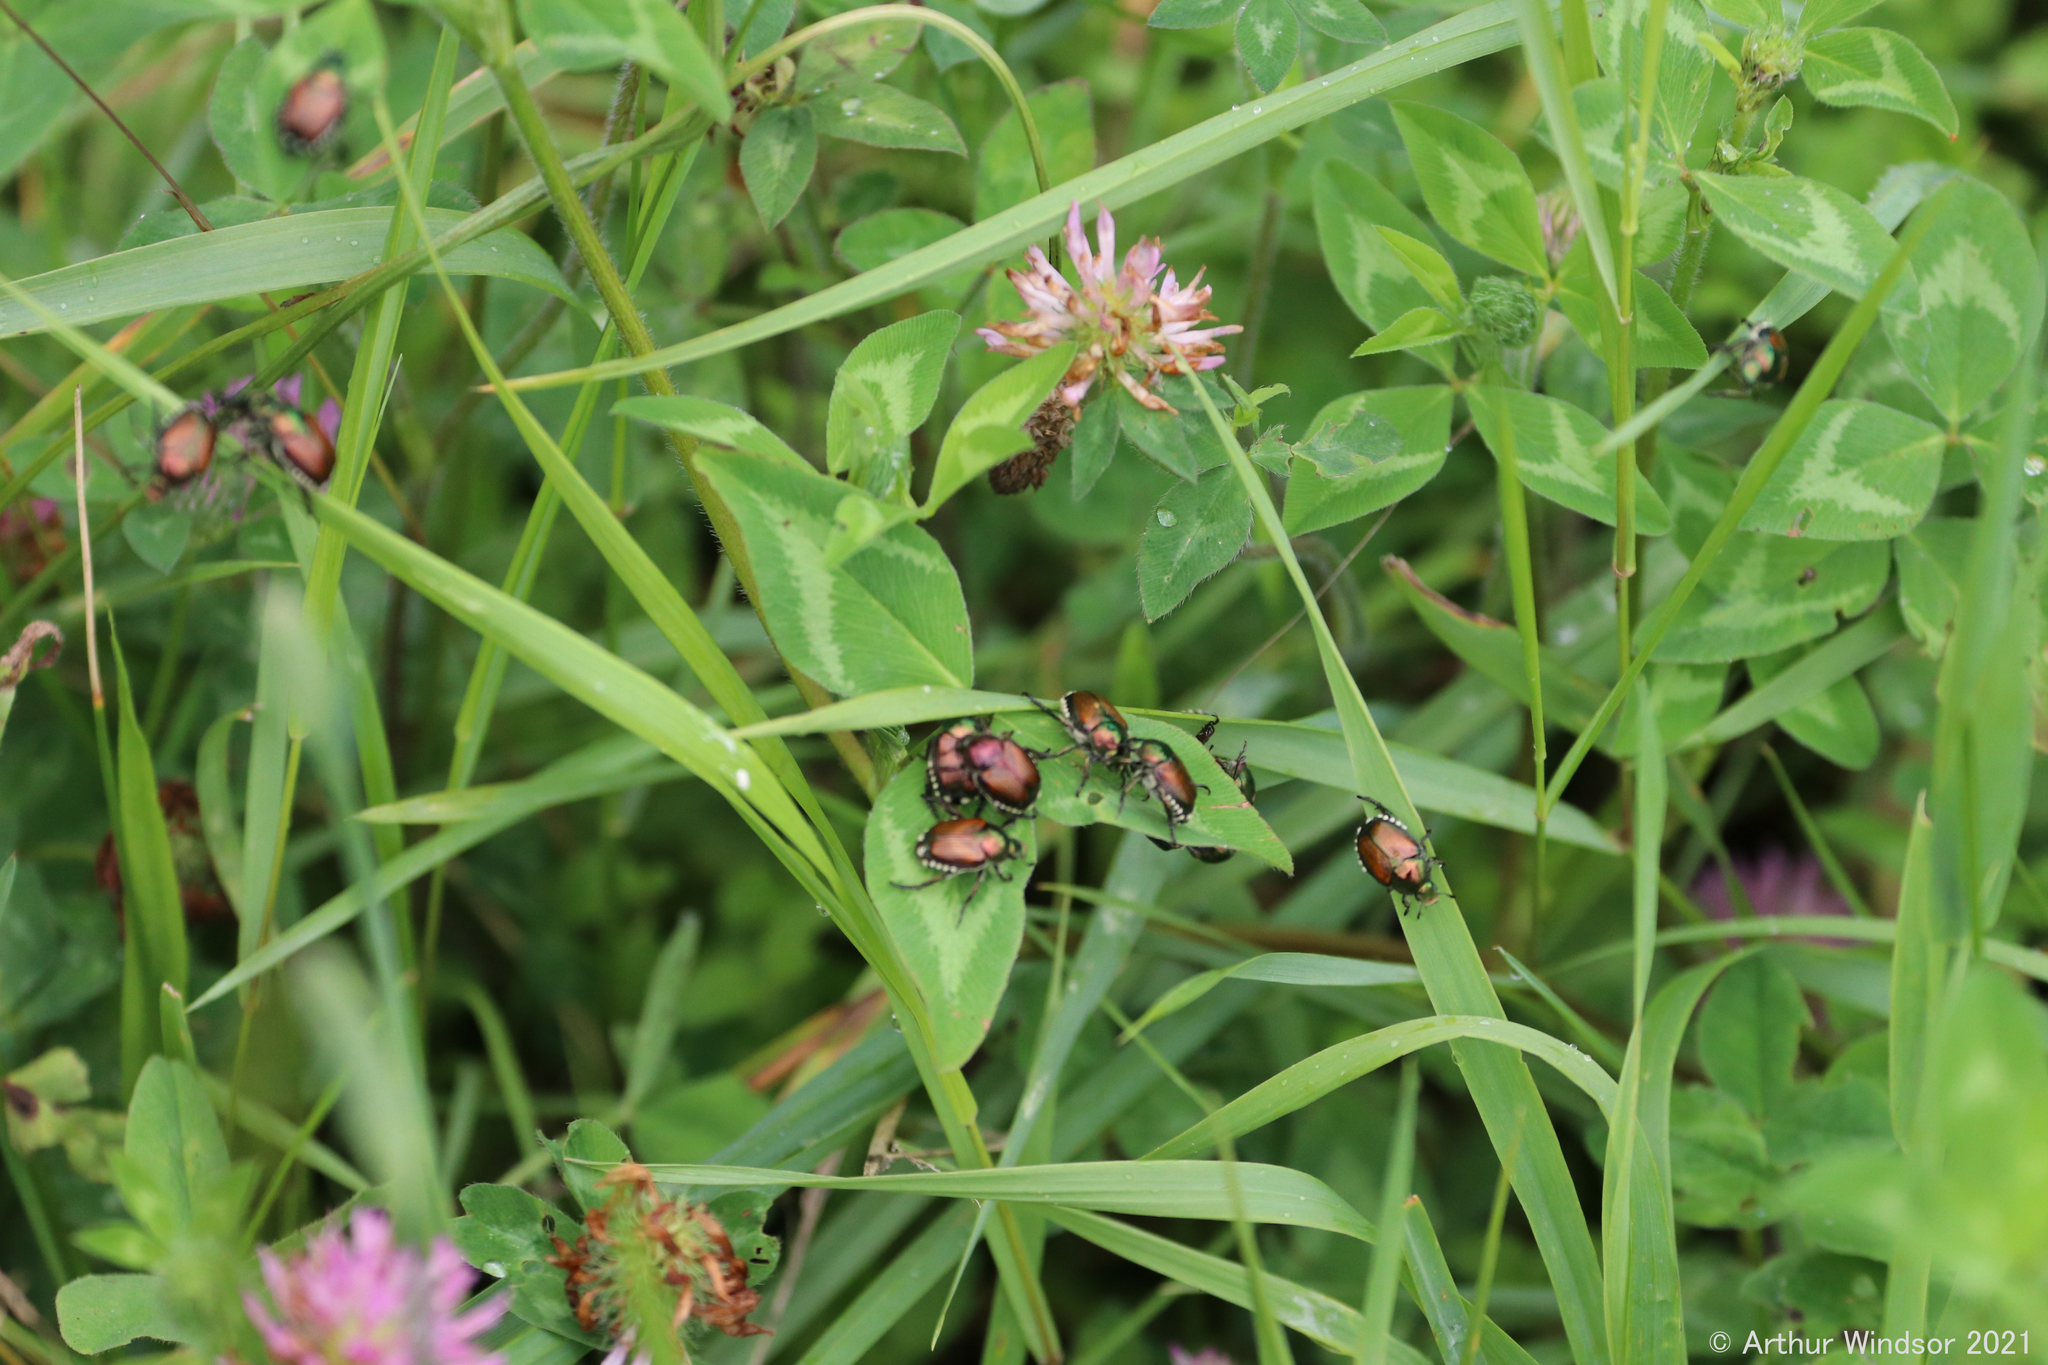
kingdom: Animalia
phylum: Arthropoda
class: Insecta
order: Coleoptera
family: Scarabaeidae
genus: Popillia
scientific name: Popillia japonica
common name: Japanese beetle
